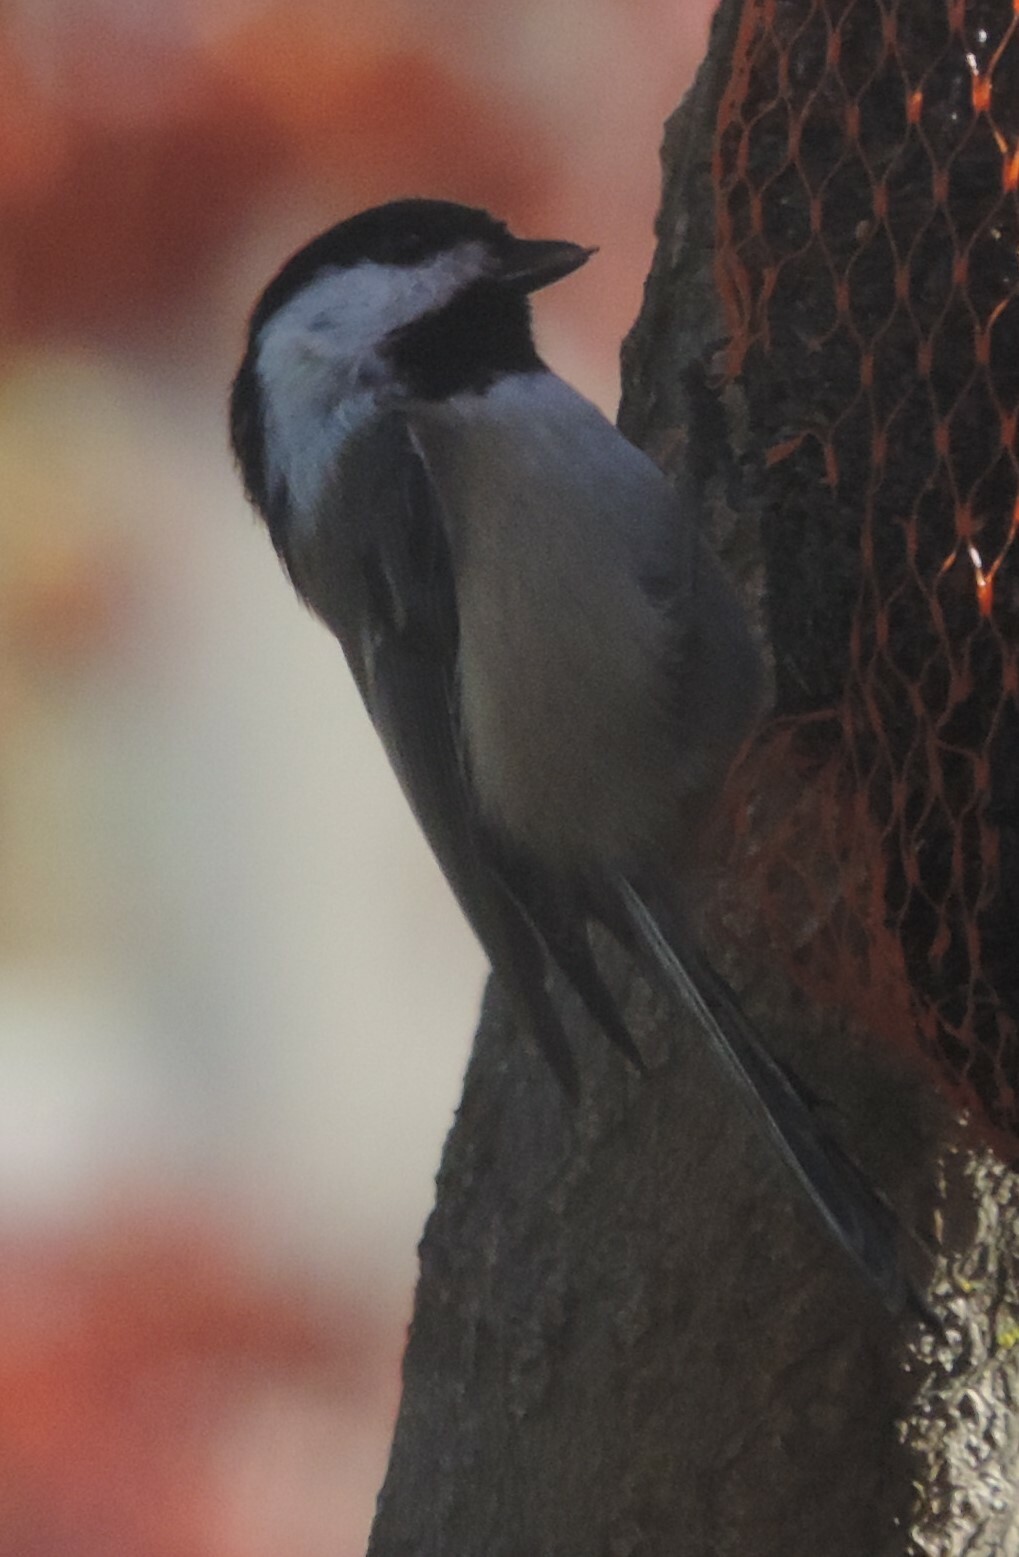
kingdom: Animalia
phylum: Chordata
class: Aves
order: Passeriformes
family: Paridae
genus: Poecile
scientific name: Poecile atricapillus
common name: Black-capped chickadee
